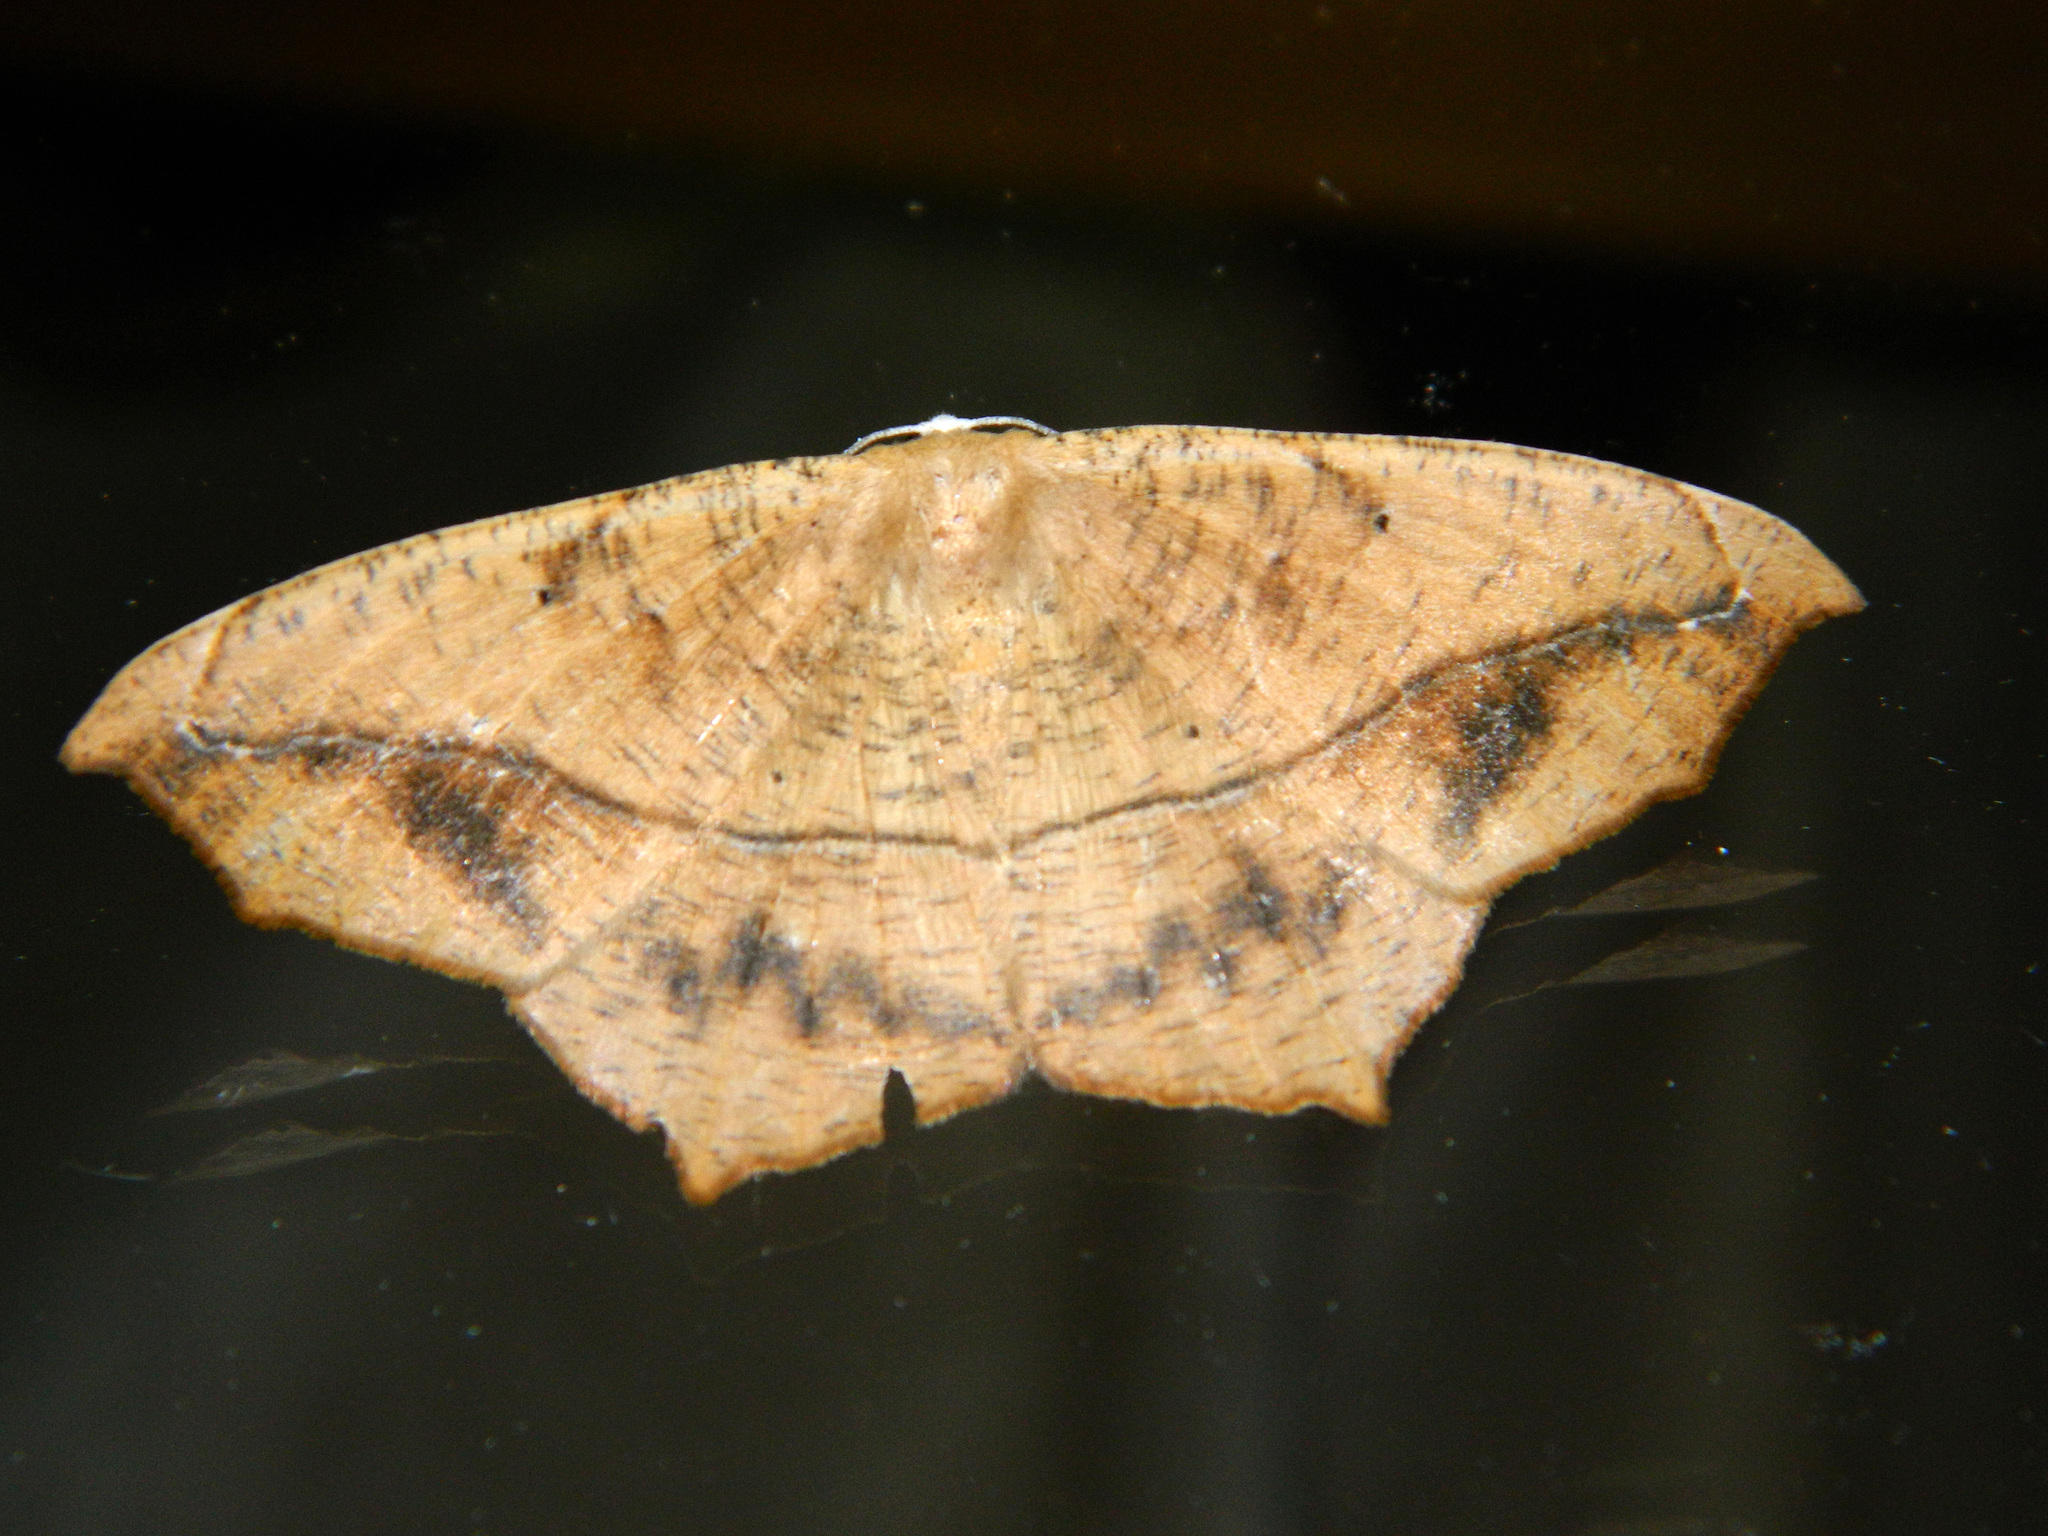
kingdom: Animalia
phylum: Arthropoda
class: Insecta
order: Lepidoptera
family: Geometridae
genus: Prochoerodes
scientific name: Prochoerodes lineola
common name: Large maple spanworm
